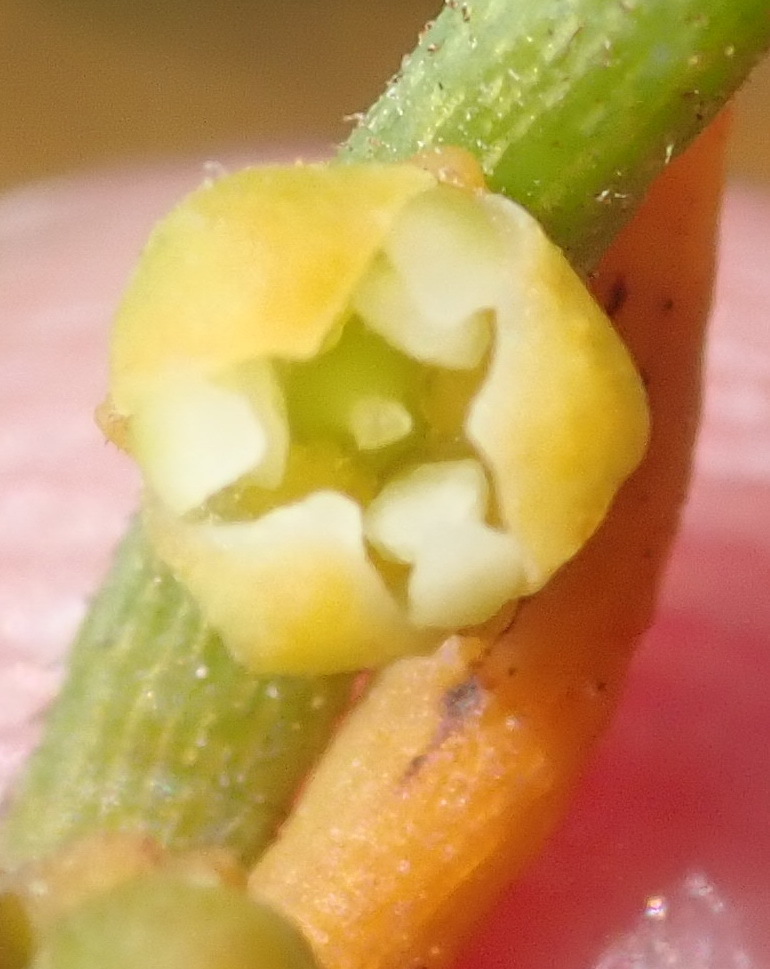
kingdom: Plantae
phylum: Tracheophyta
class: Magnoliopsida
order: Laurales
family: Lauraceae
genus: Cassytha
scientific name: Cassytha ciliolata
